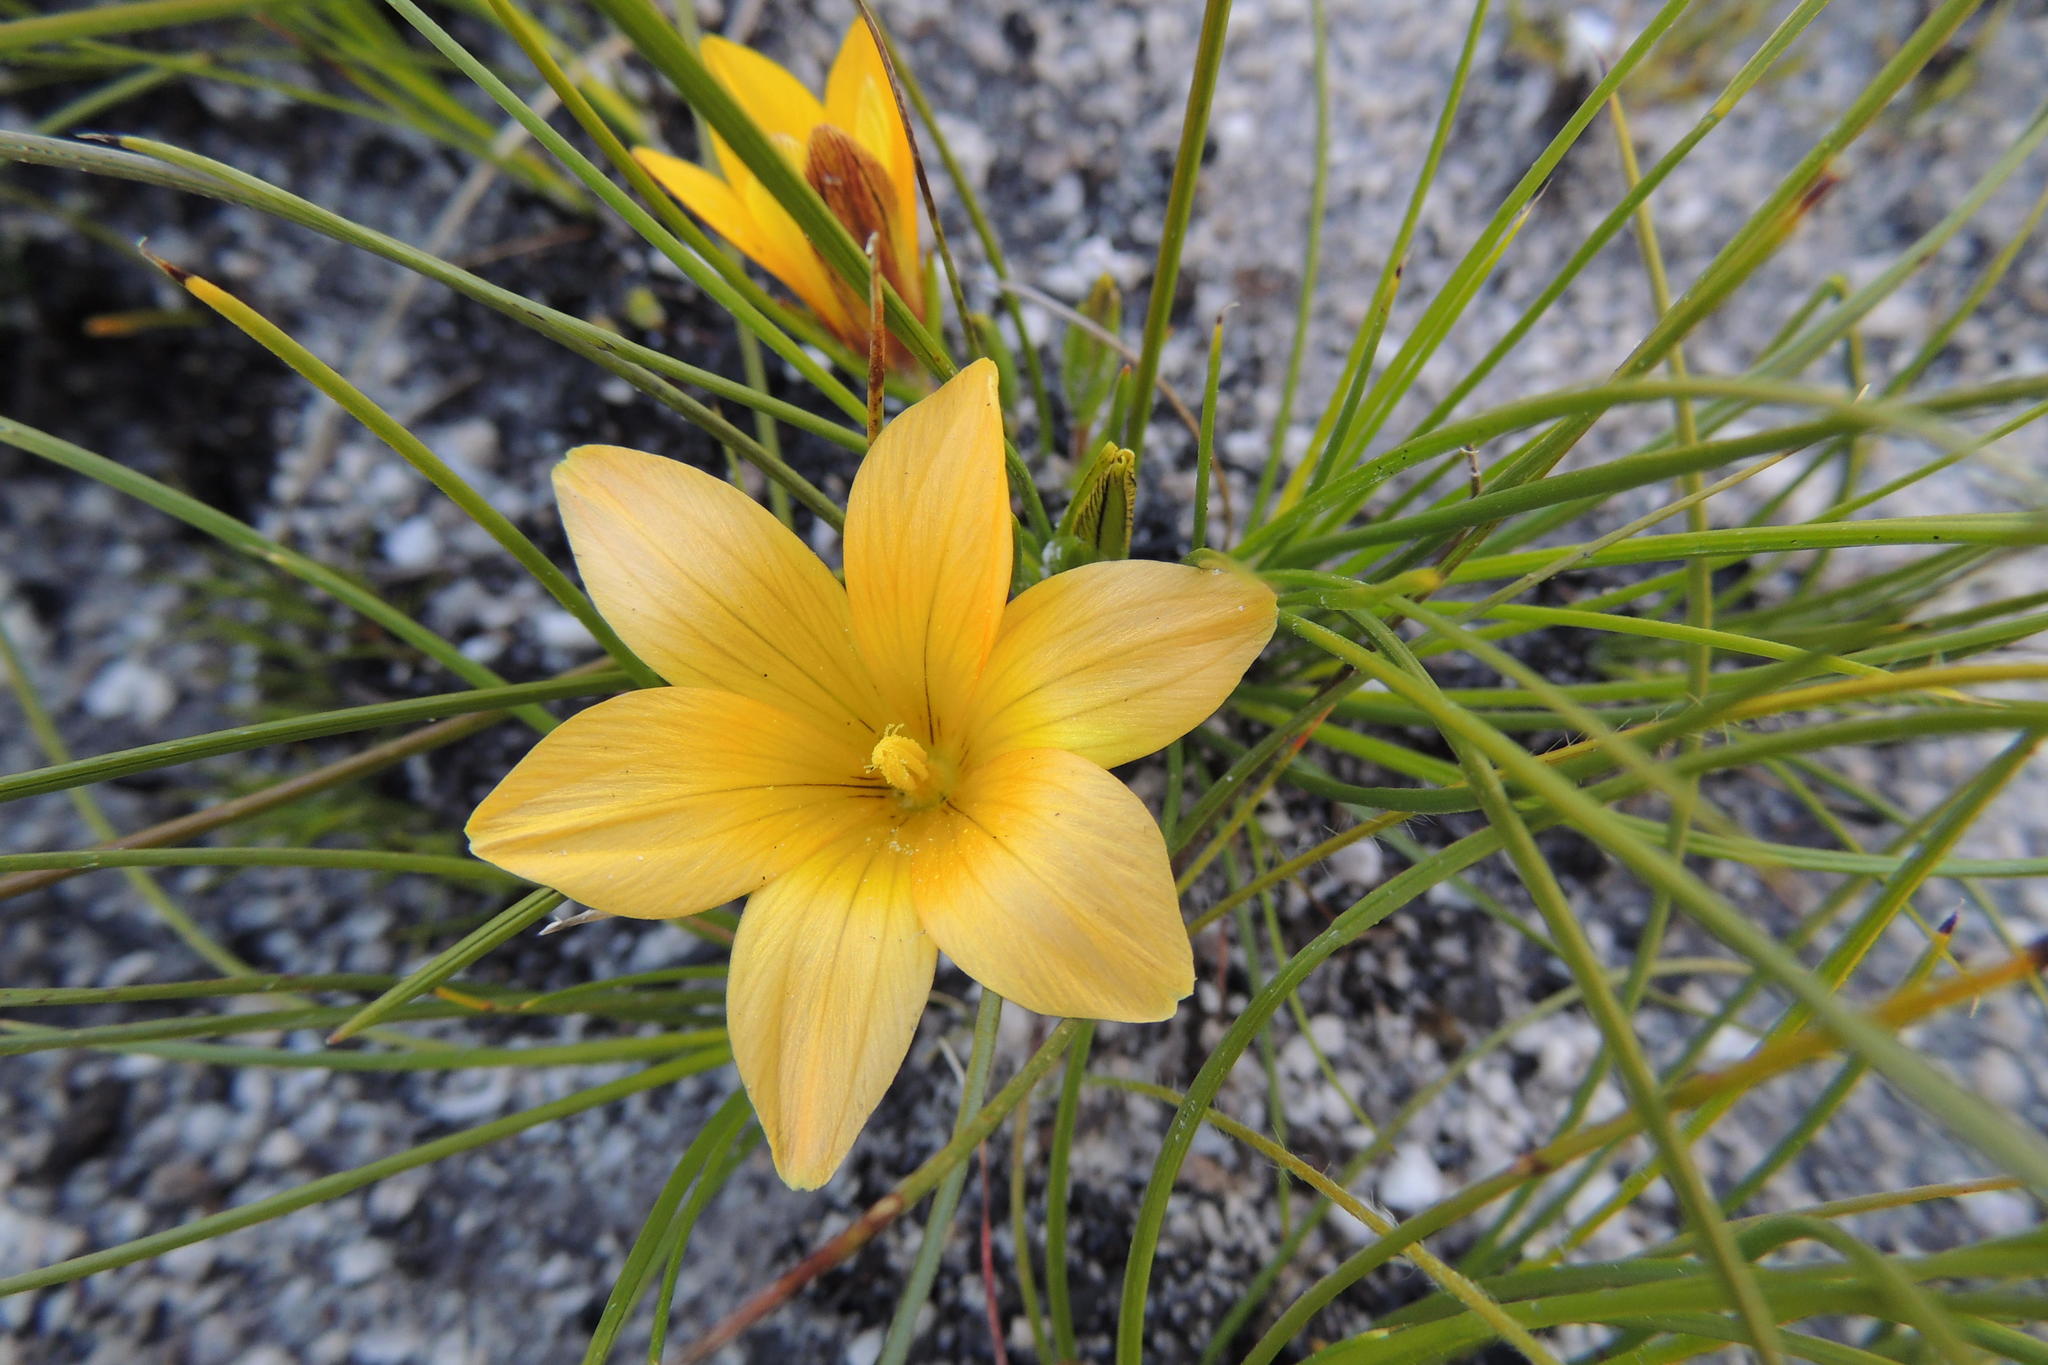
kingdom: Plantae
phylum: Tracheophyta
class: Liliopsida
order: Asparagales
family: Iridaceae
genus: Romulea
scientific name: Romulea setifolia
